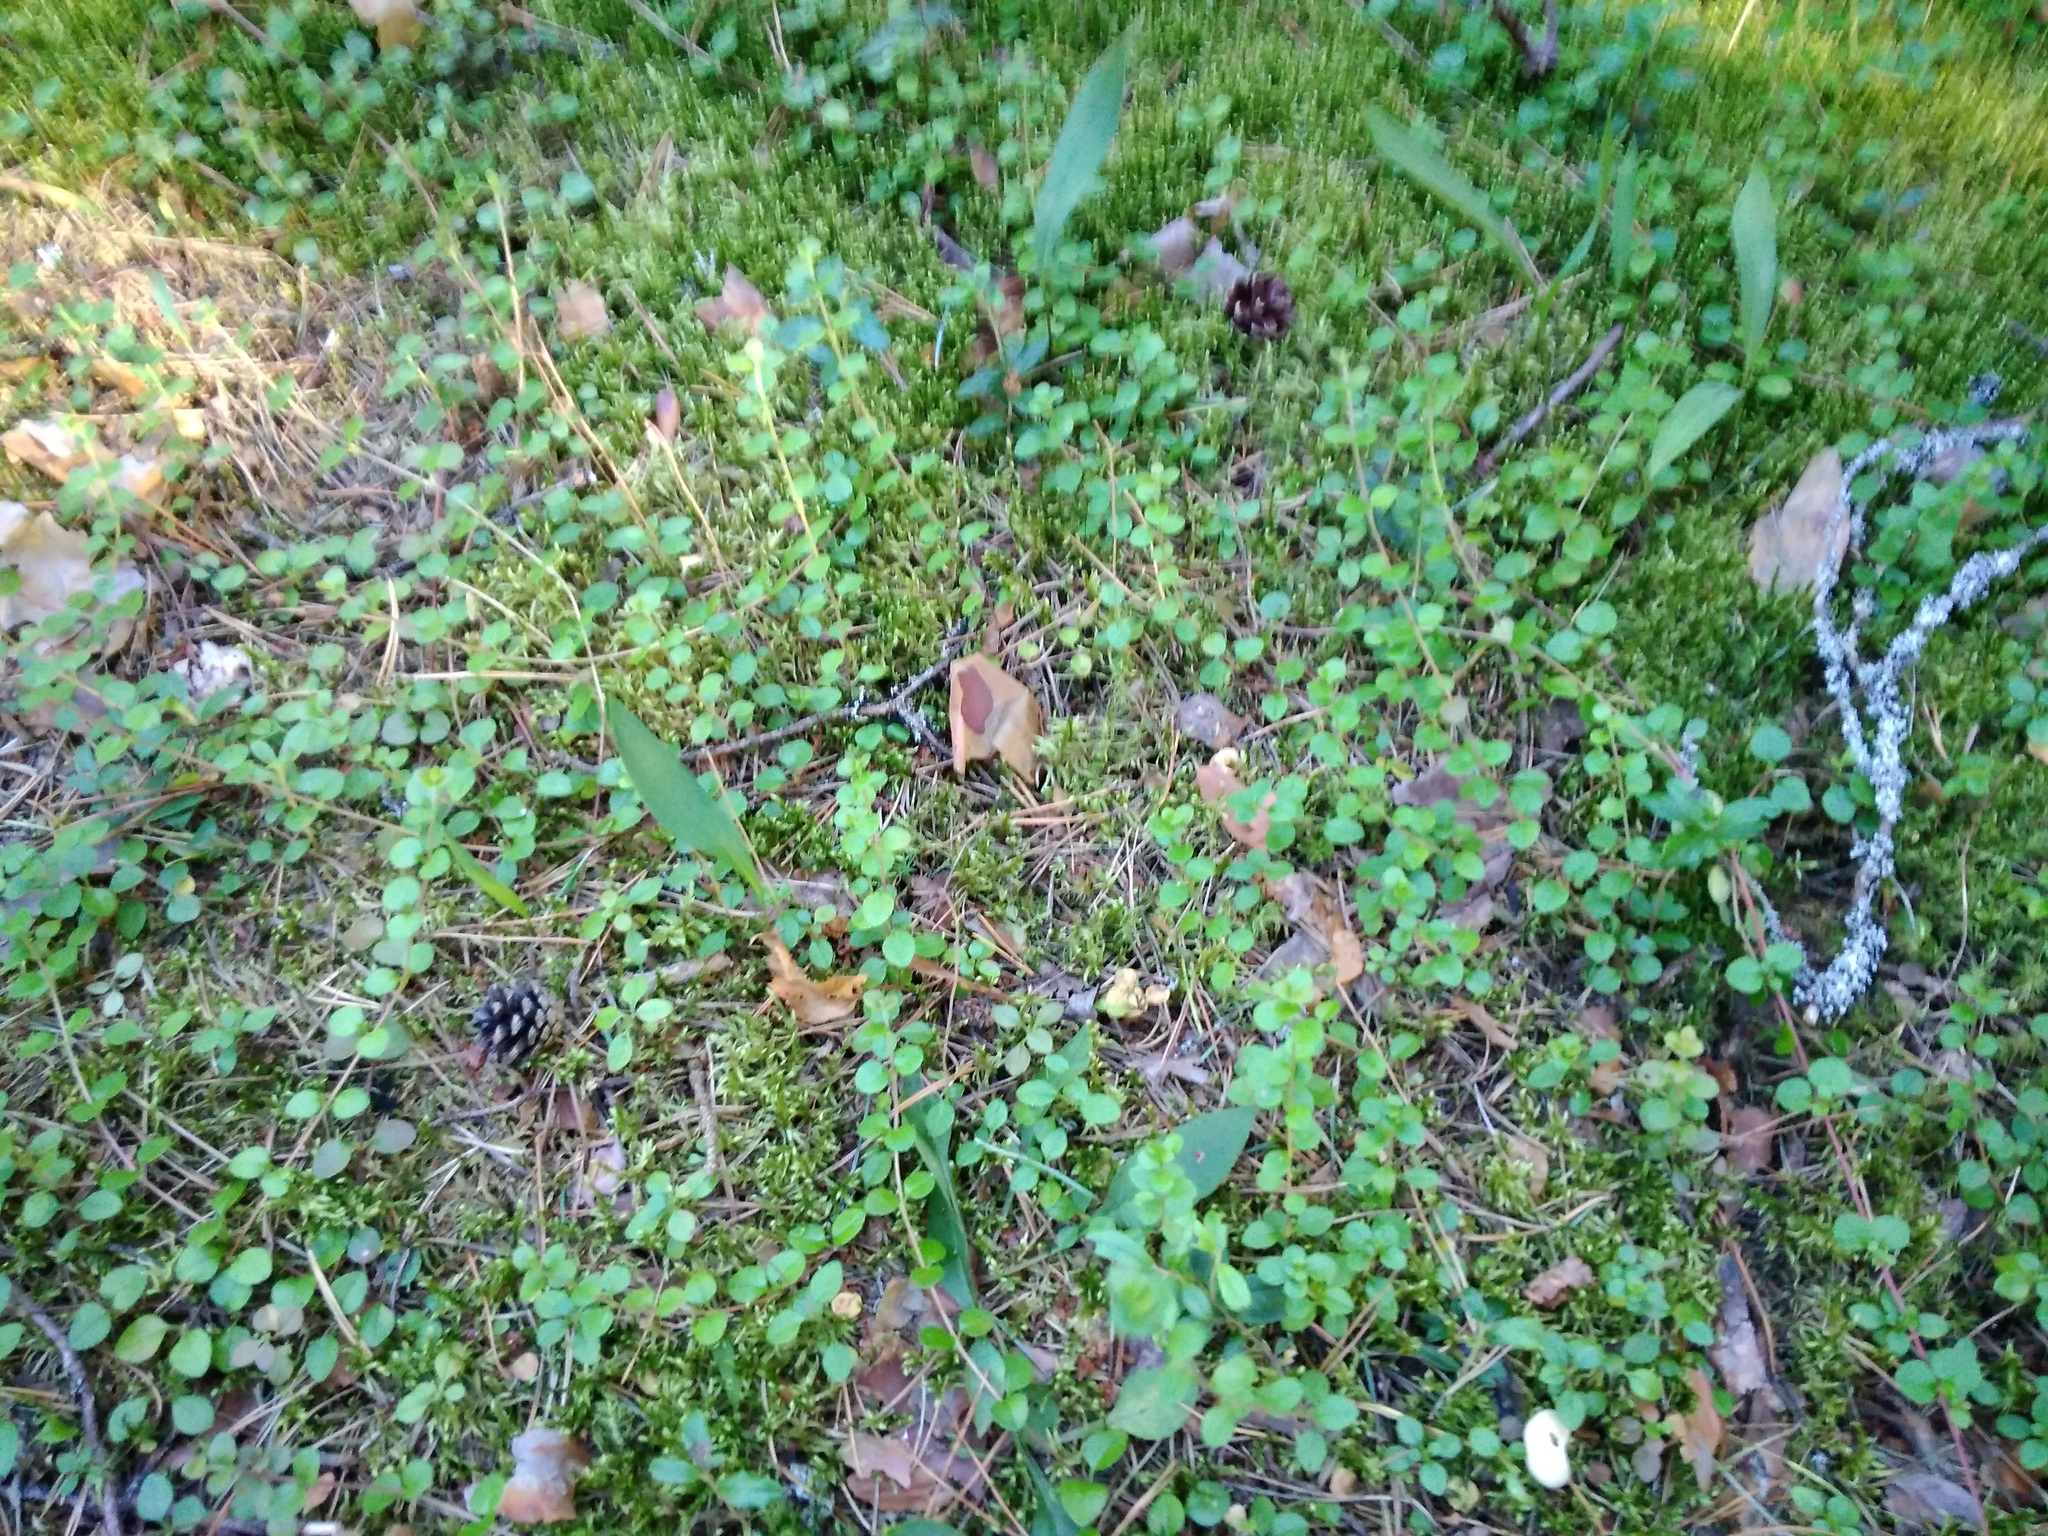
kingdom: Plantae
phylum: Tracheophyta
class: Magnoliopsida
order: Dipsacales
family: Caprifoliaceae
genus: Linnaea
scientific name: Linnaea borealis
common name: Twinflower
